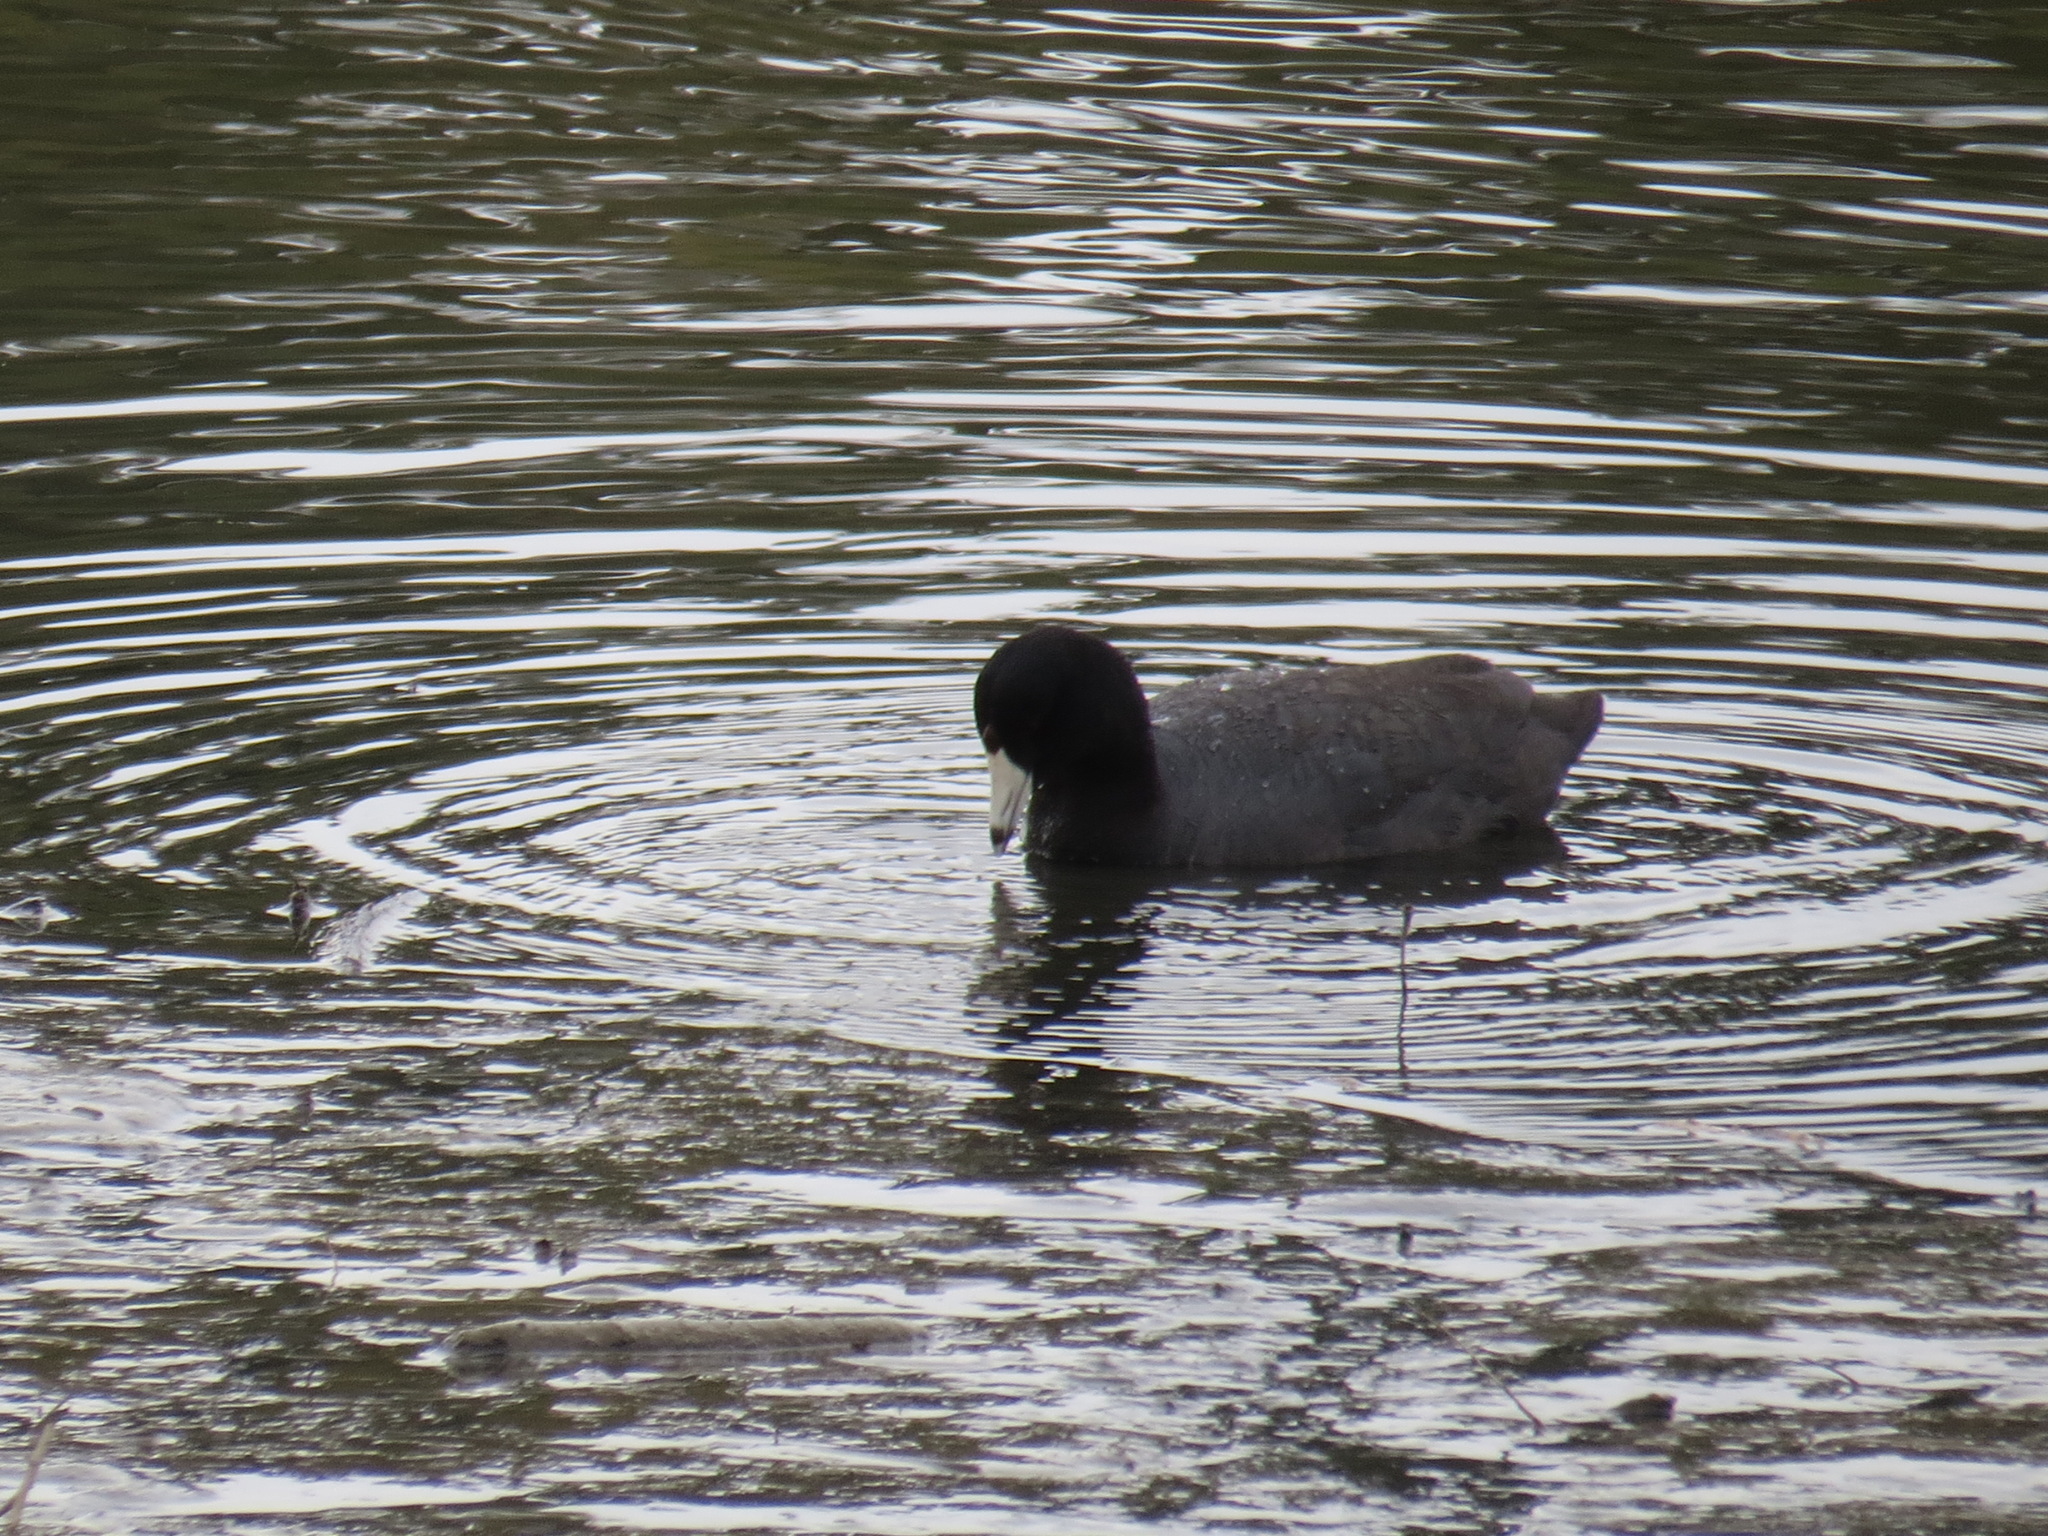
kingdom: Animalia
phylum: Chordata
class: Aves
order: Gruiformes
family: Rallidae
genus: Fulica
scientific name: Fulica americana
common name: American coot
